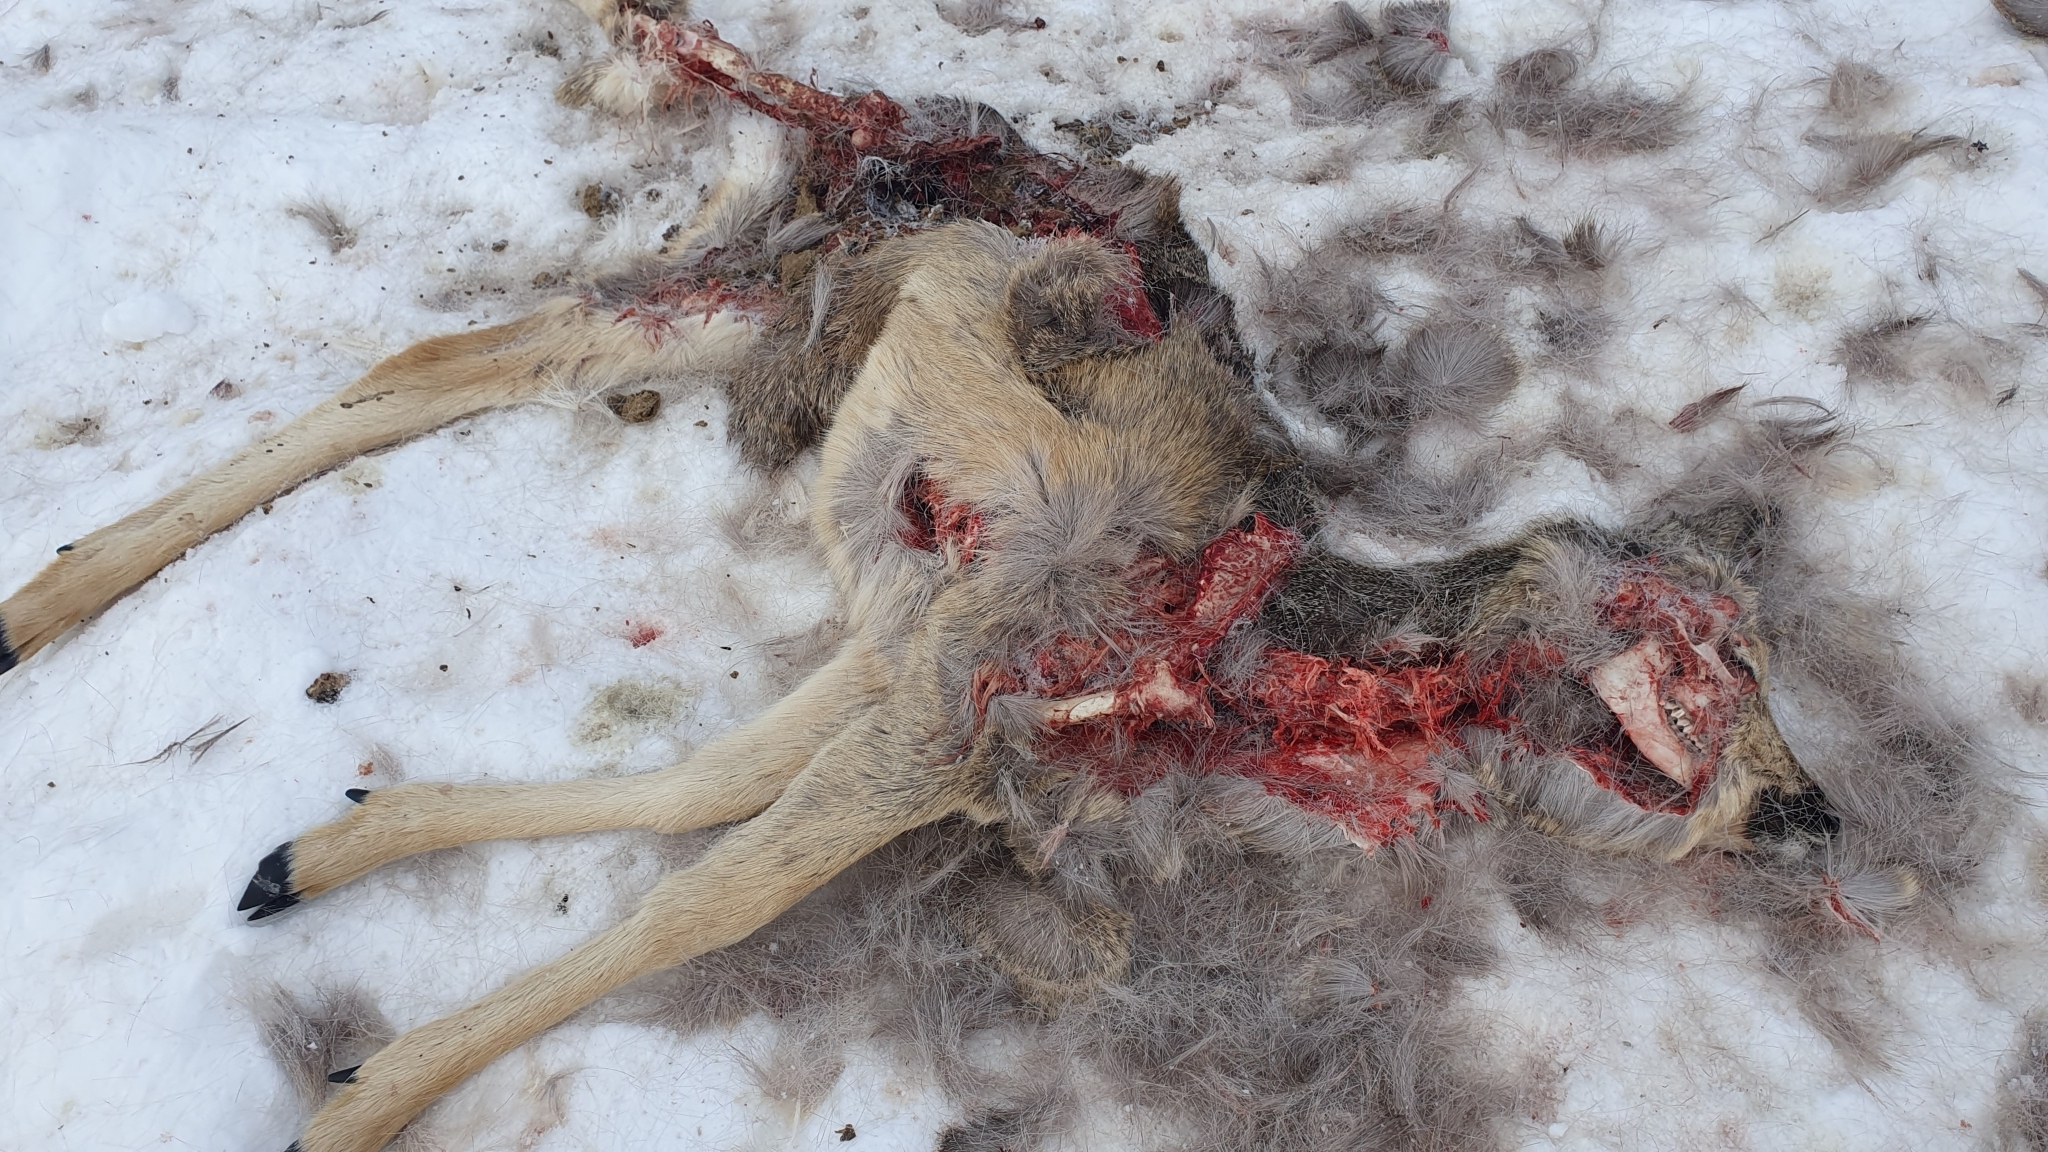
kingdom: Animalia
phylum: Chordata
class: Mammalia
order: Artiodactyla
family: Cervidae
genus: Capreolus
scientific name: Capreolus pygargus
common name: Siberian roe
